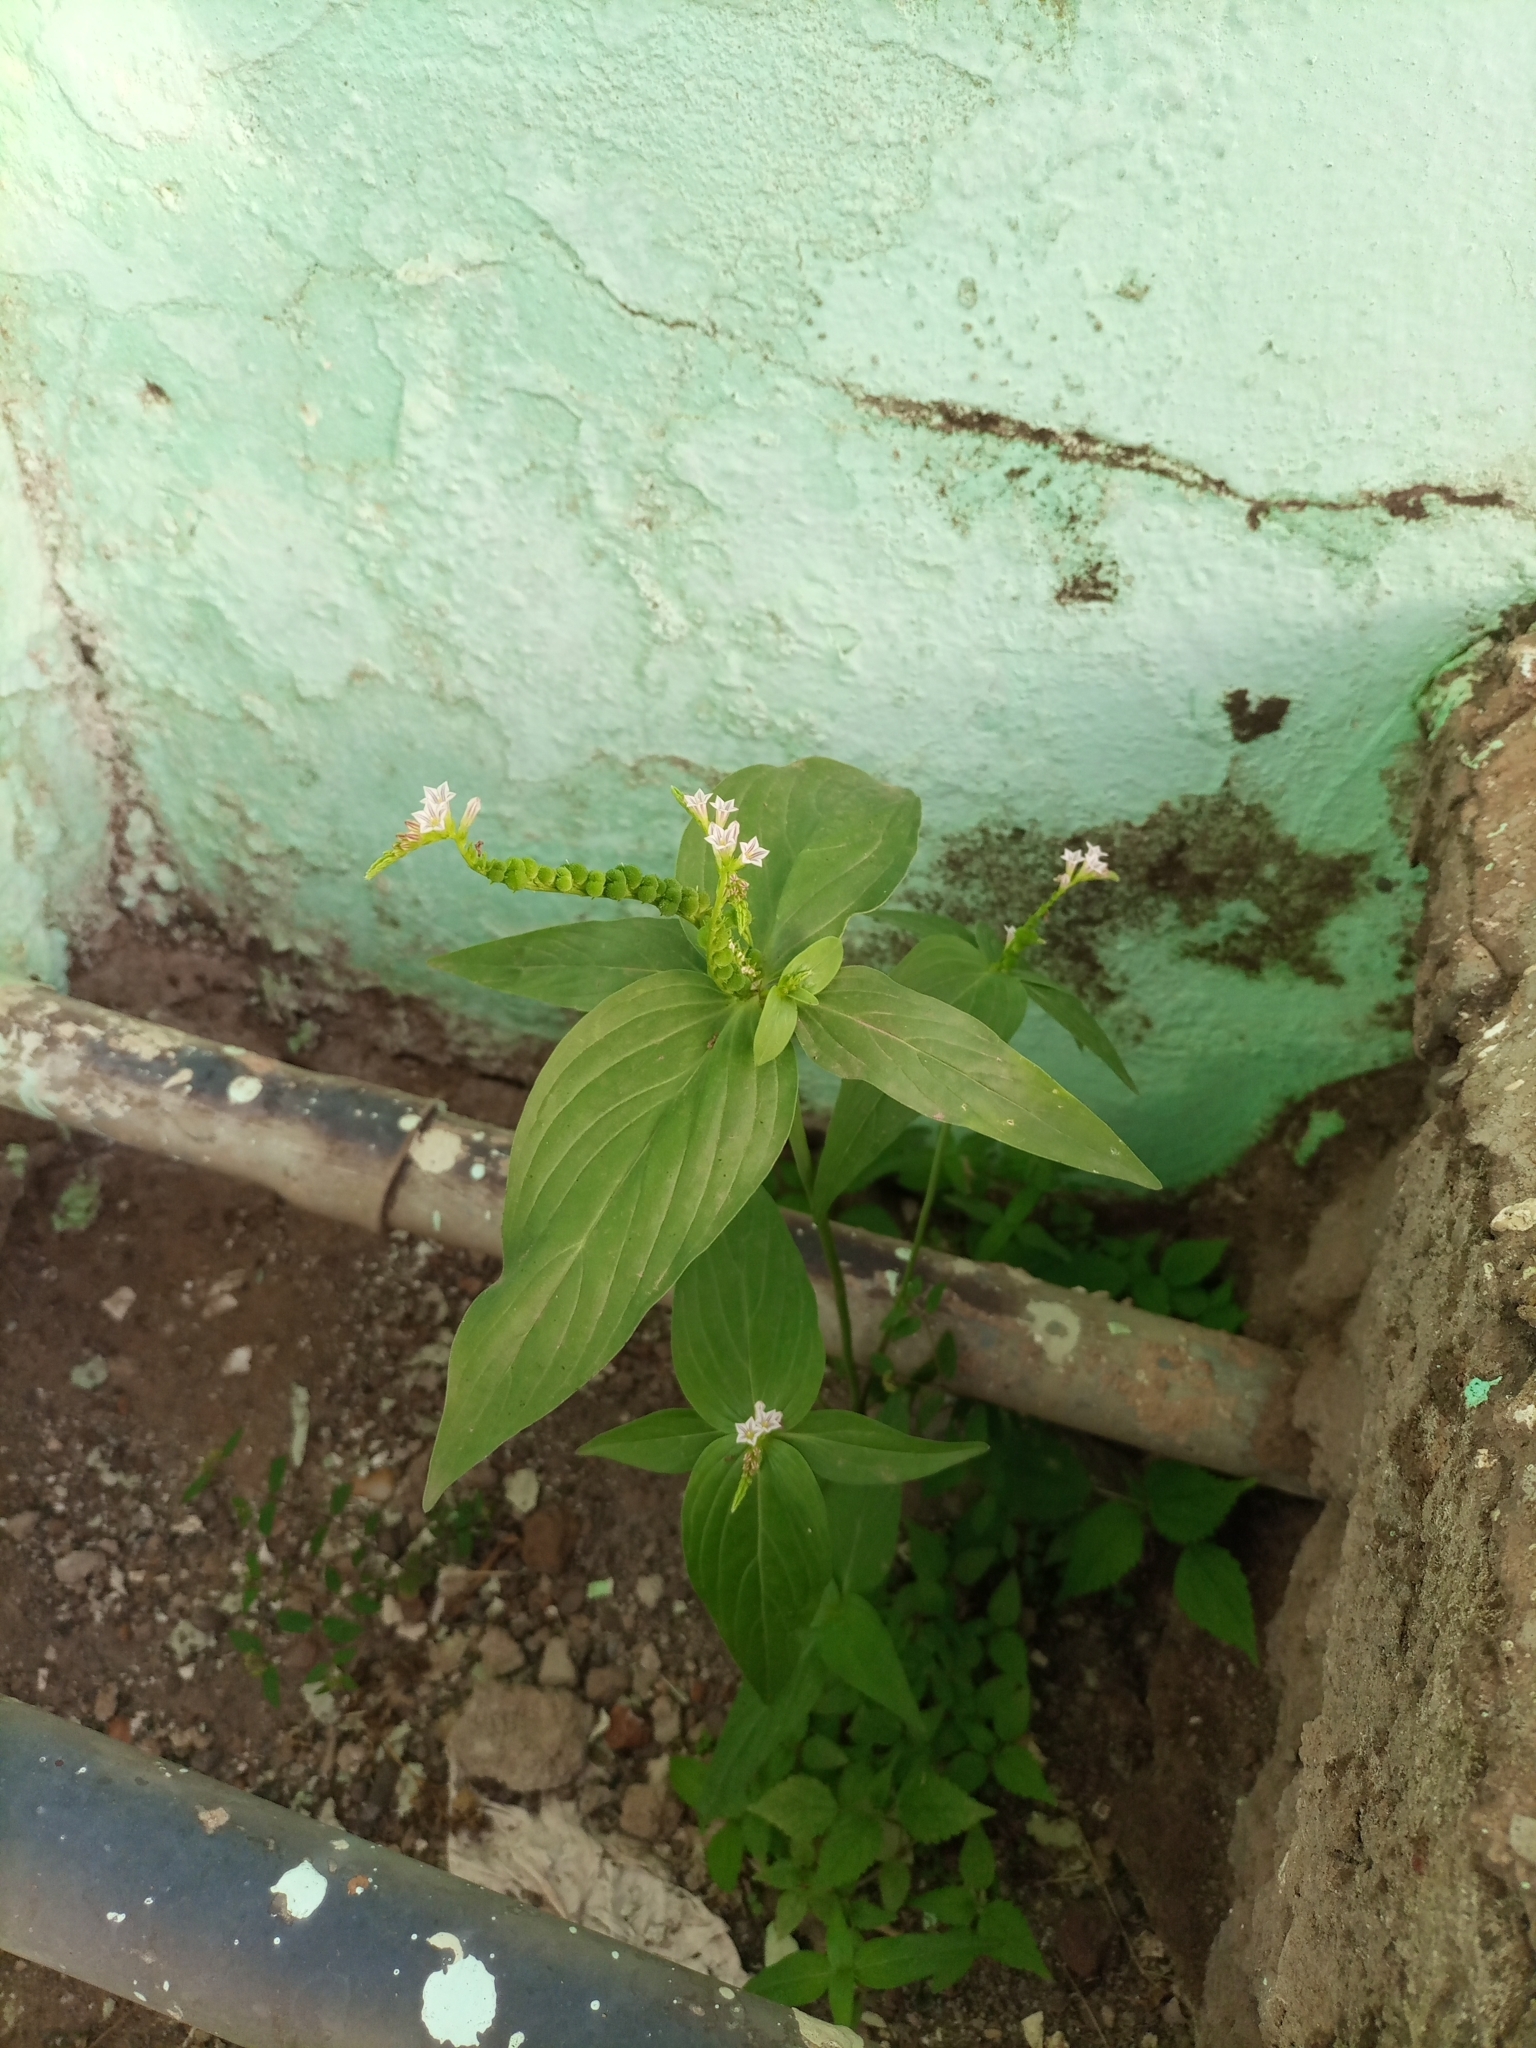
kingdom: Plantae
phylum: Tracheophyta
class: Magnoliopsida
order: Gentianales
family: Loganiaceae
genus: Spigelia
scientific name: Spigelia anthelmia
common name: West indian-pink
